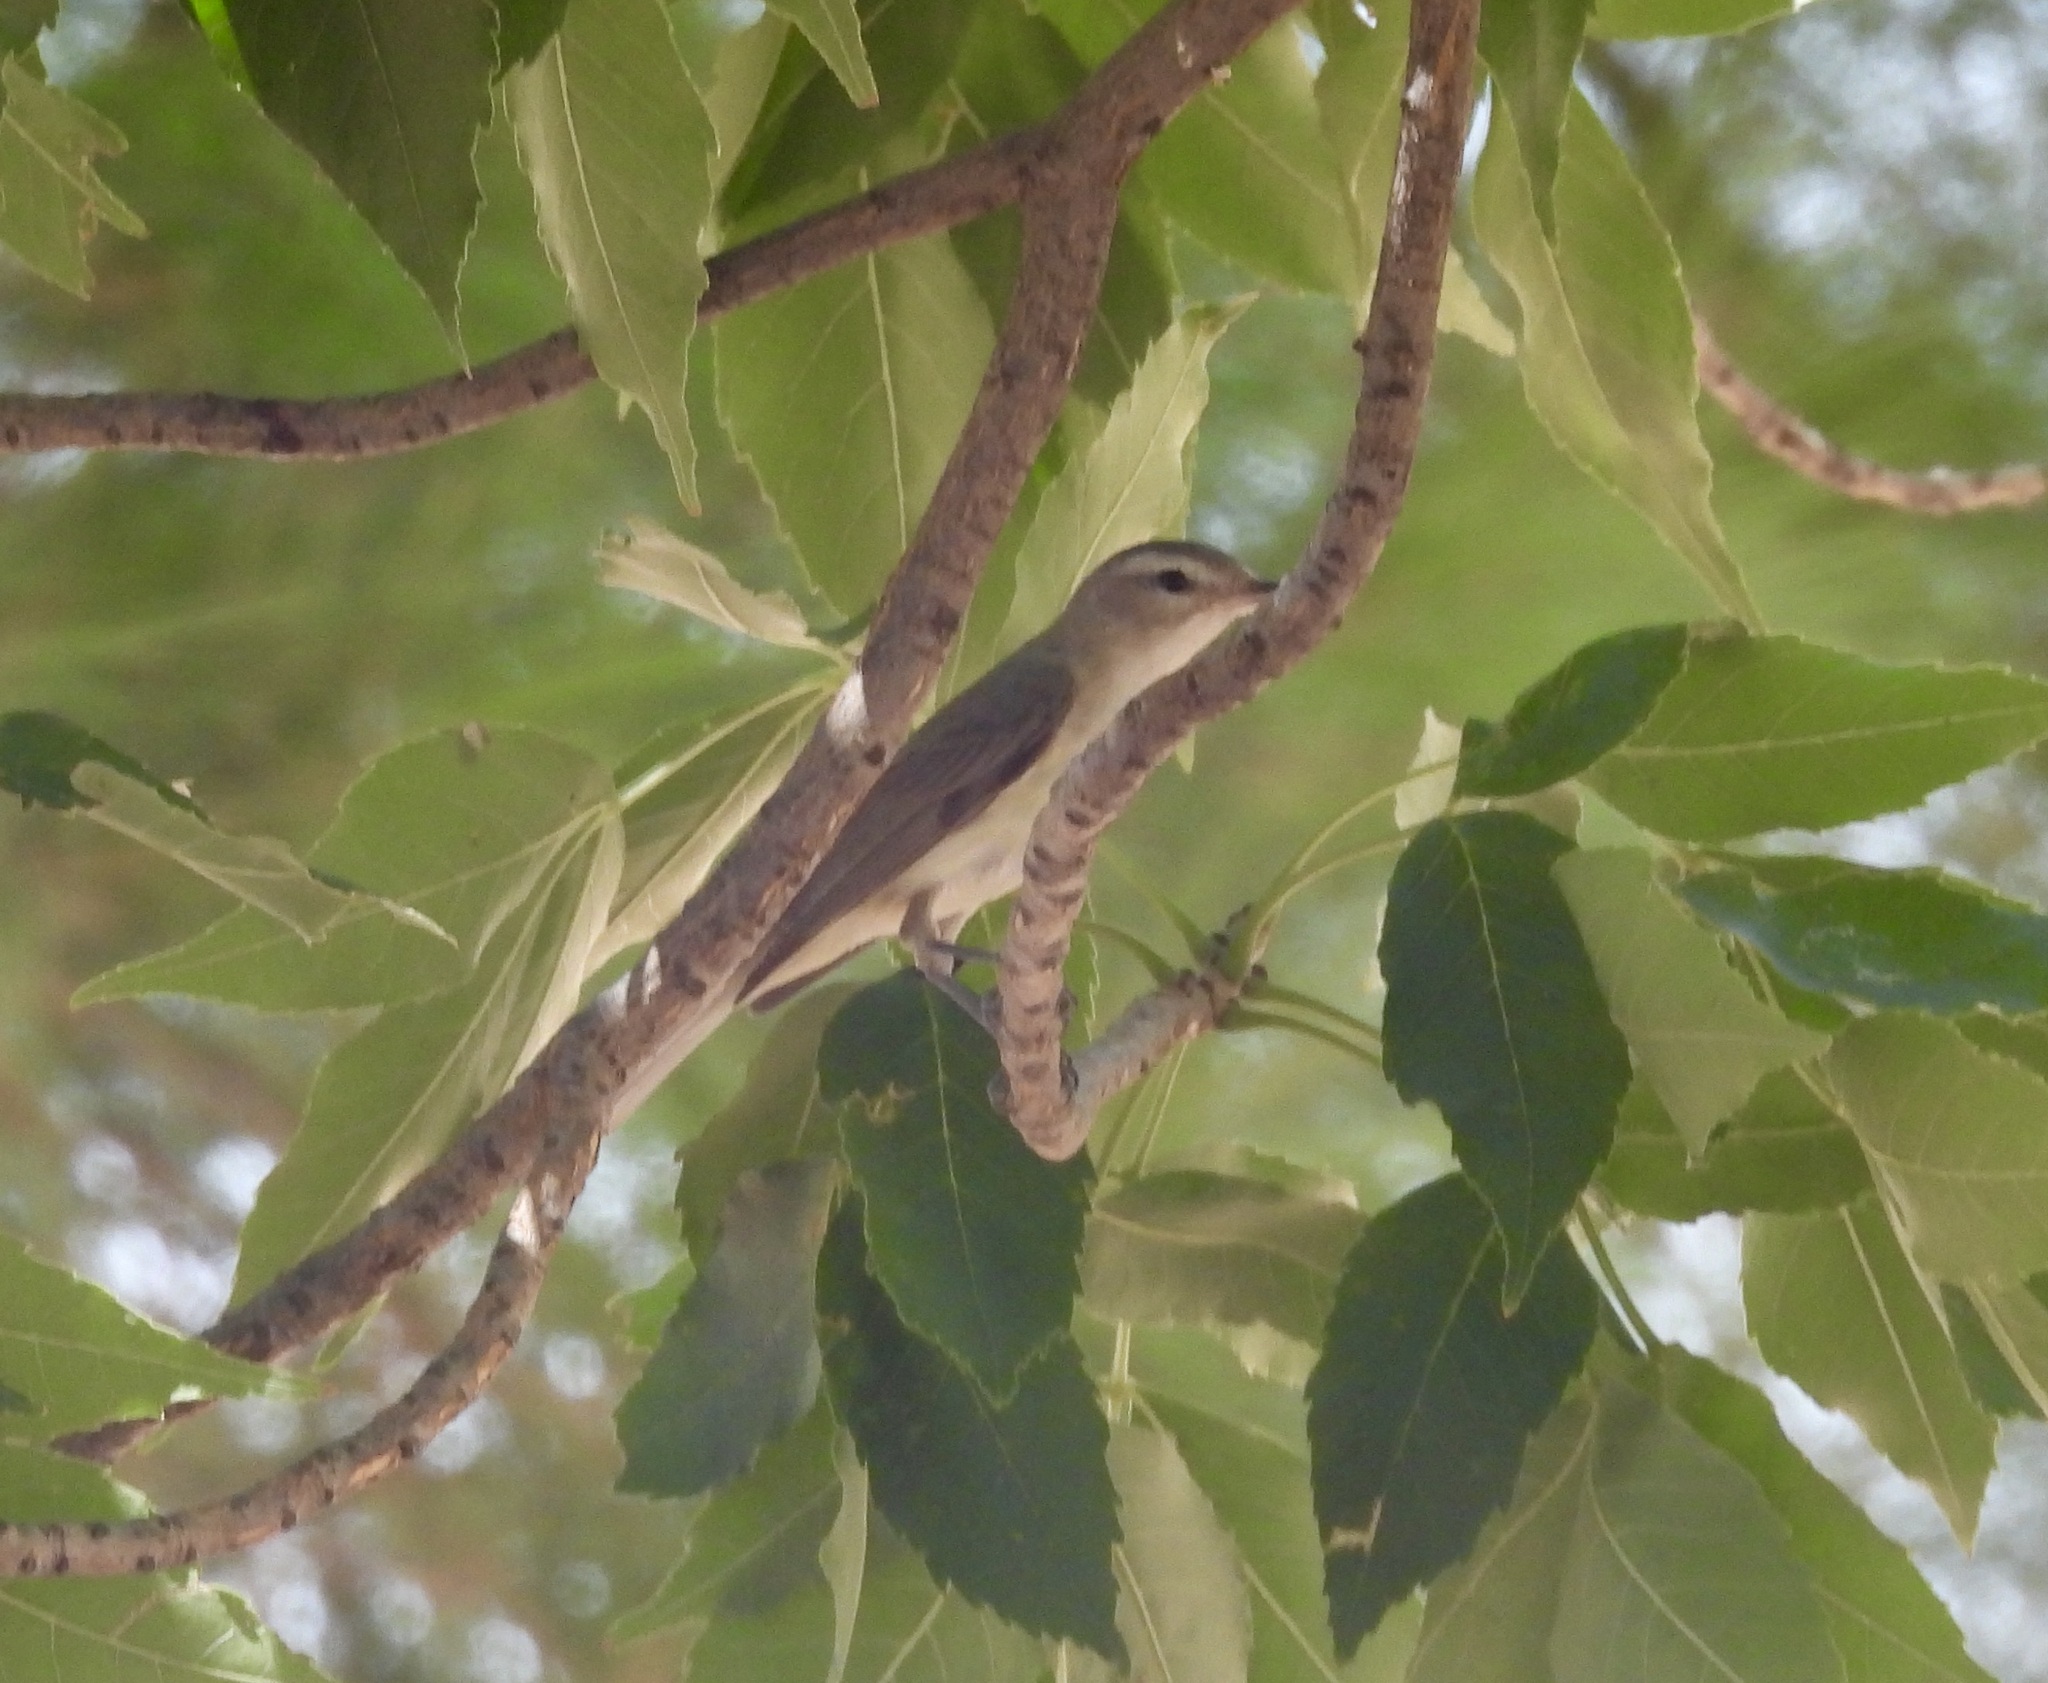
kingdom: Animalia
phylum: Chordata
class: Aves
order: Passeriformes
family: Vireonidae
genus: Vireo
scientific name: Vireo gilvus
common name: Warbling vireo
